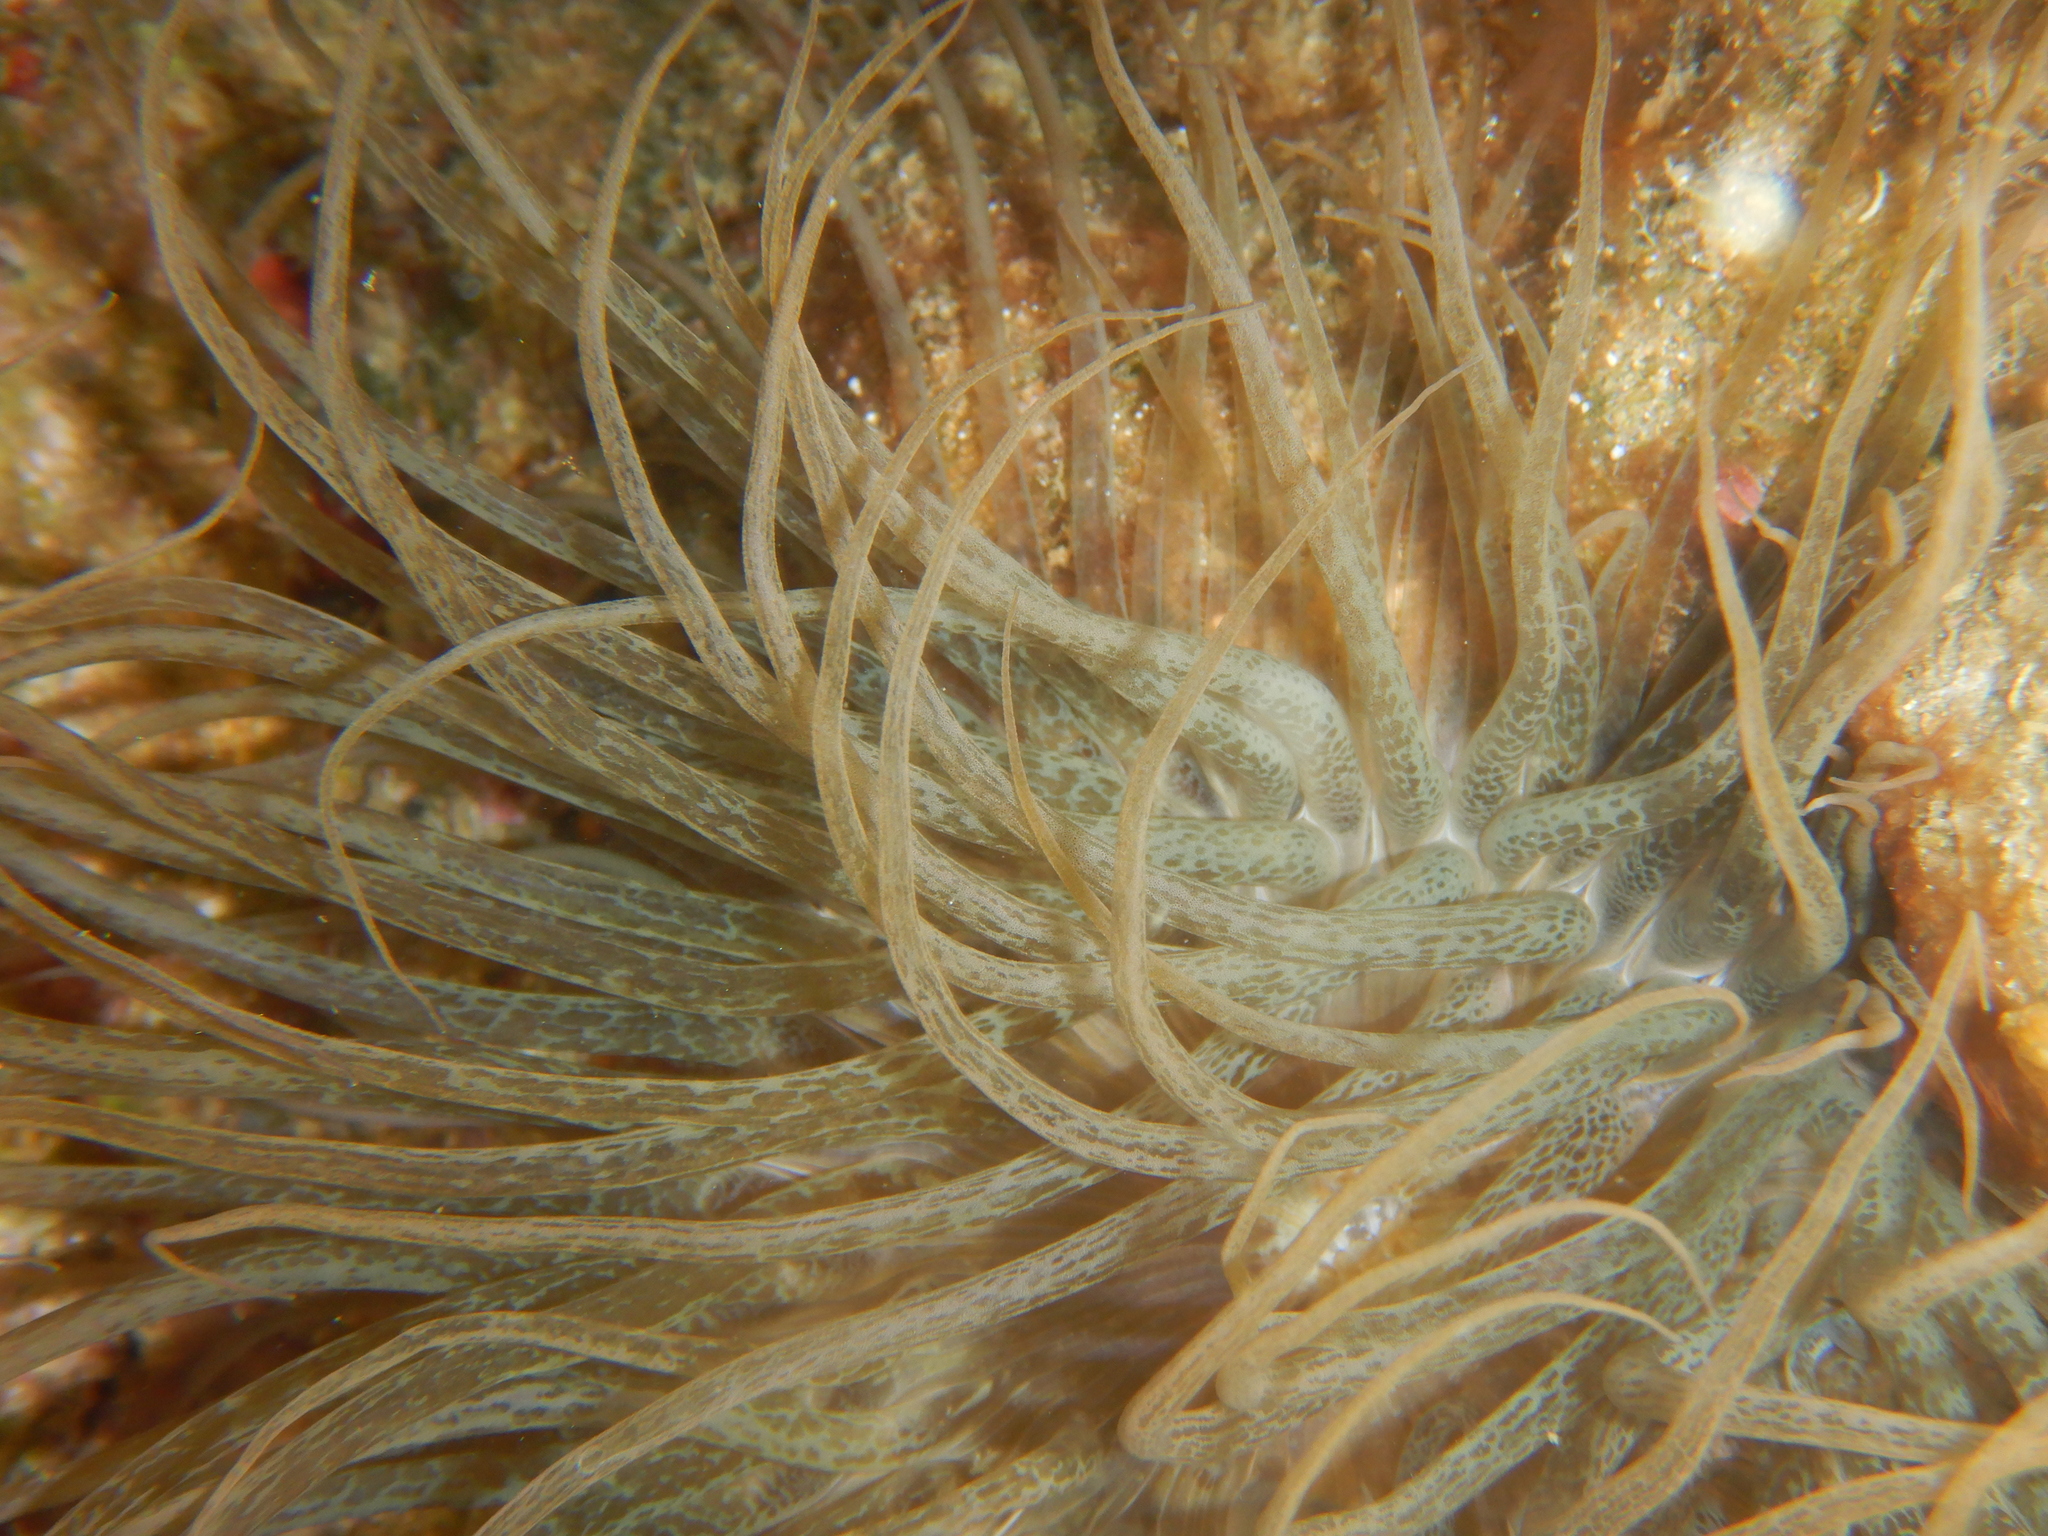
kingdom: Animalia
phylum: Cnidaria
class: Anthozoa
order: Actiniaria
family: Aiptasiidae
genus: Aiptasia
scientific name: Aiptasia mutabilis
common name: Trumpet anemone
